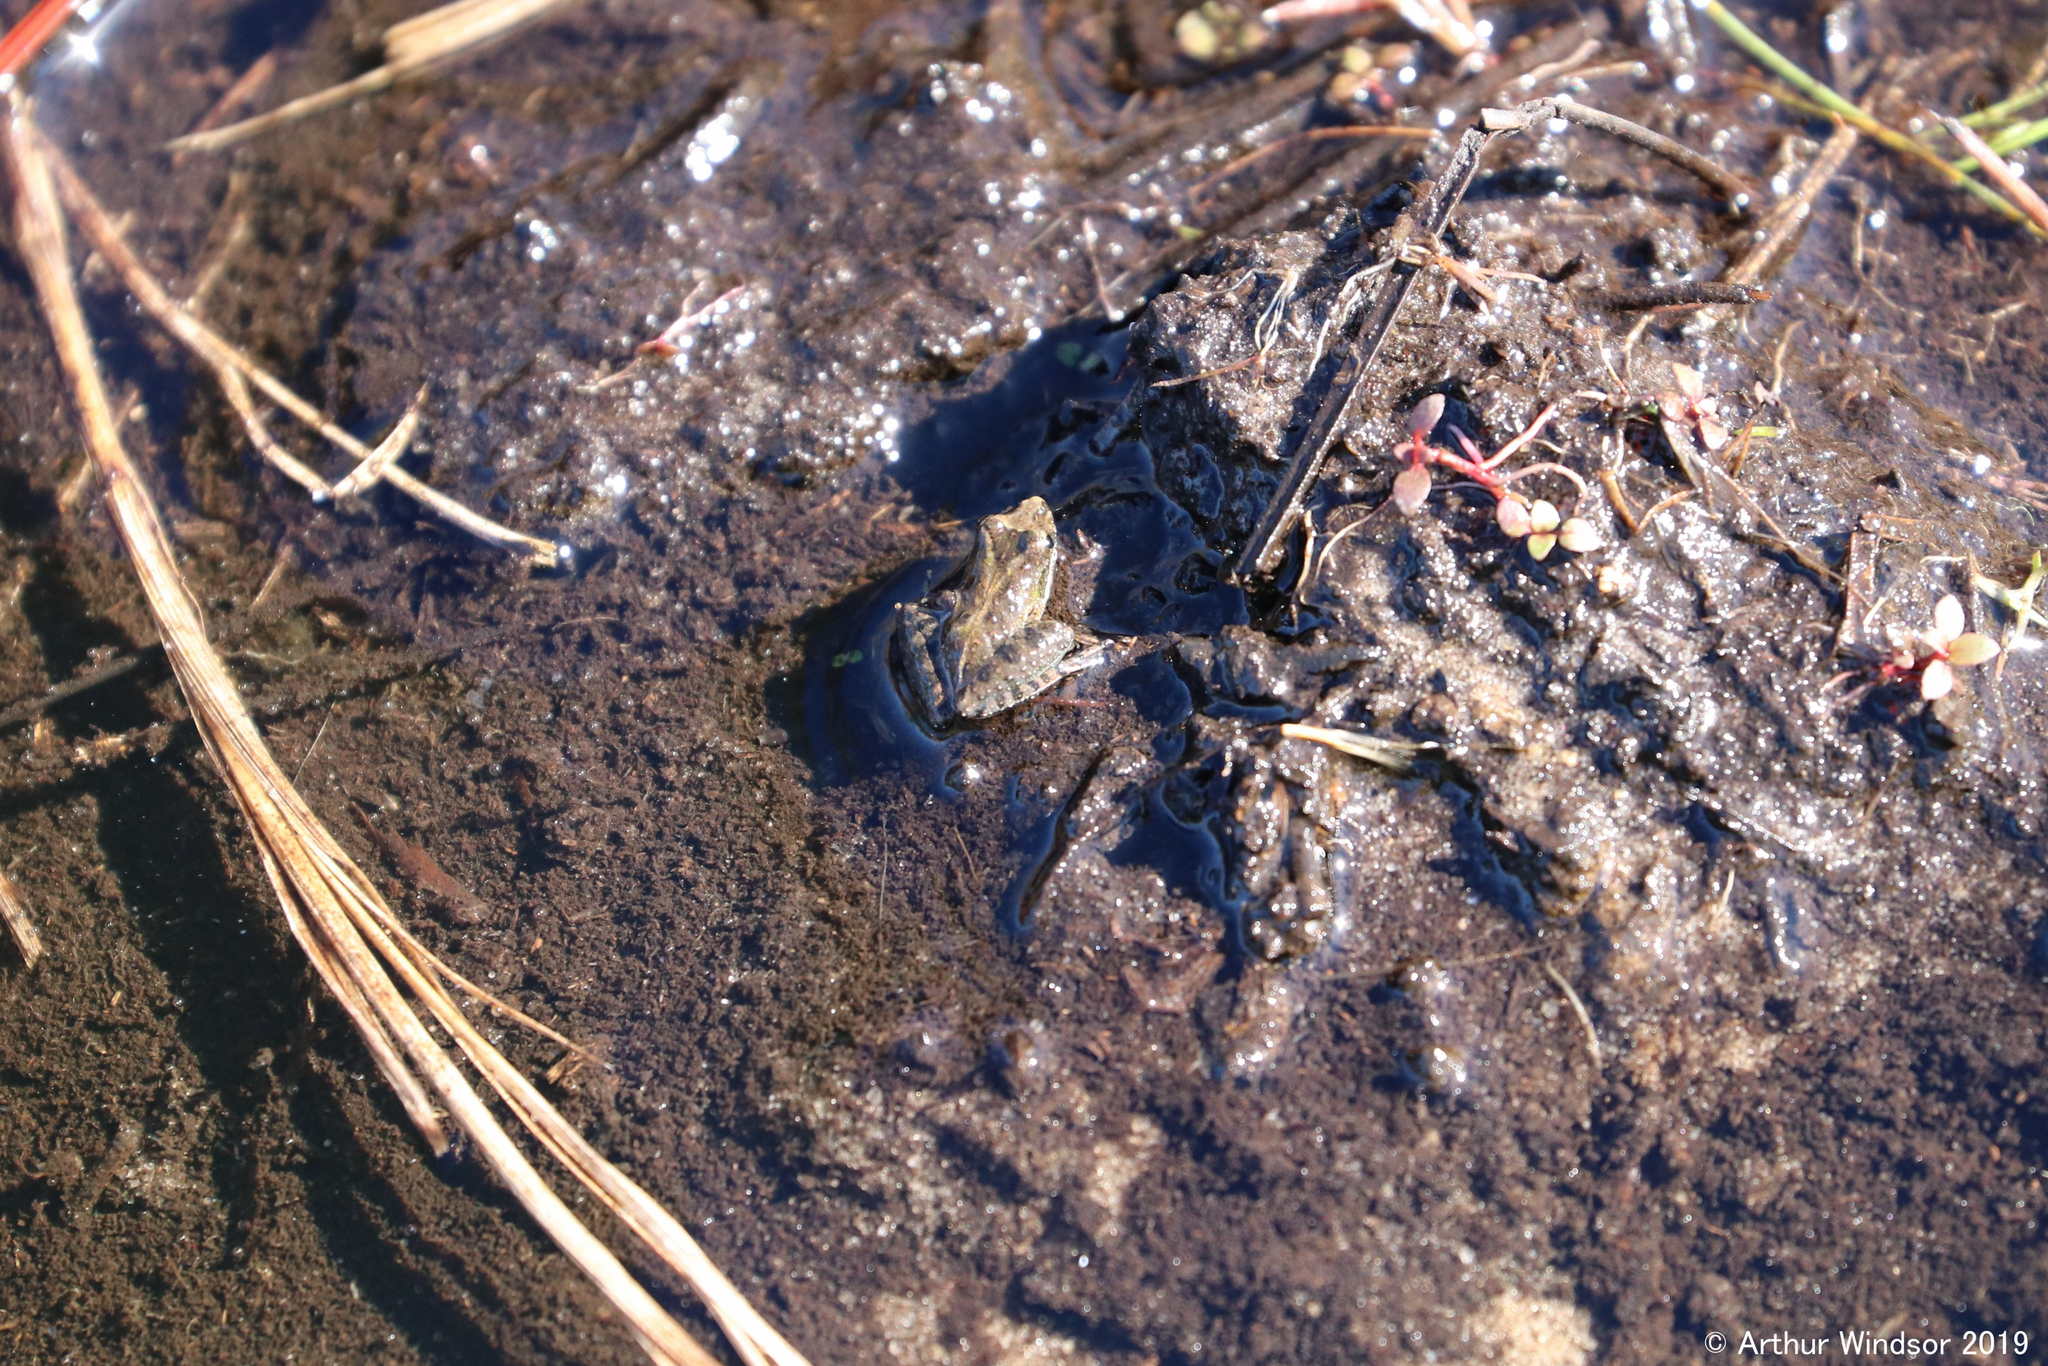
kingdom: Animalia
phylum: Chordata
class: Amphibia
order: Anura
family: Hylidae
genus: Acris
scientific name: Acris gryllus
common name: Southern cricket frog
